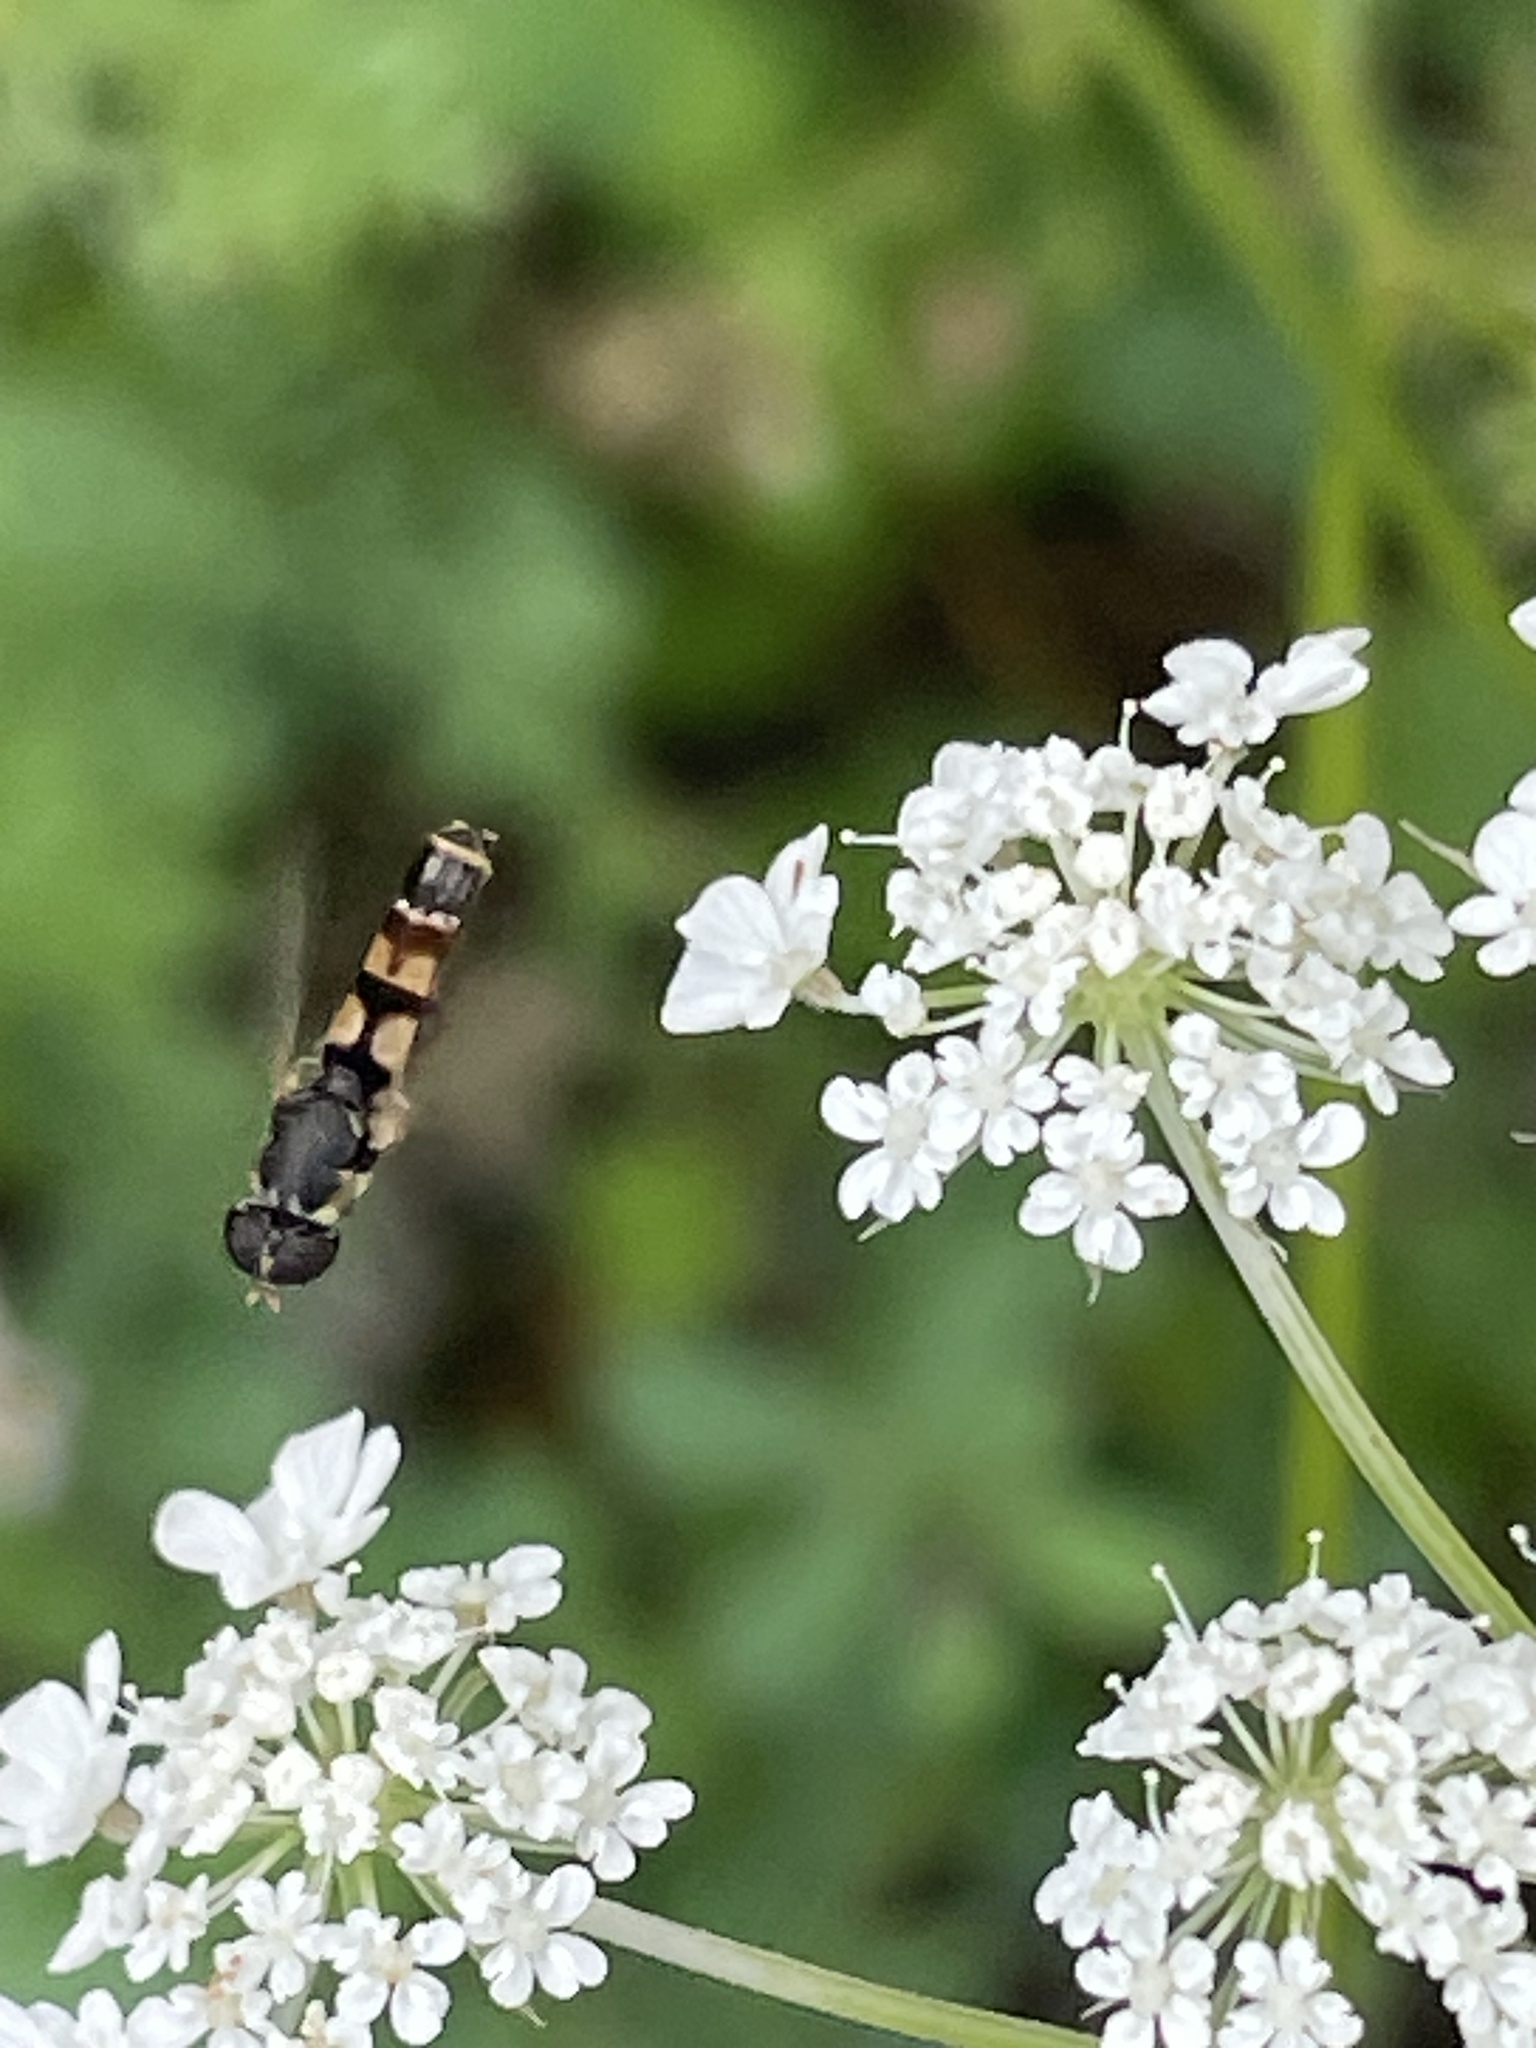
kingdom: Animalia
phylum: Arthropoda
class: Insecta
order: Diptera
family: Syrphidae
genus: Syritta
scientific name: Syritta pipiens
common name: Hover fly
